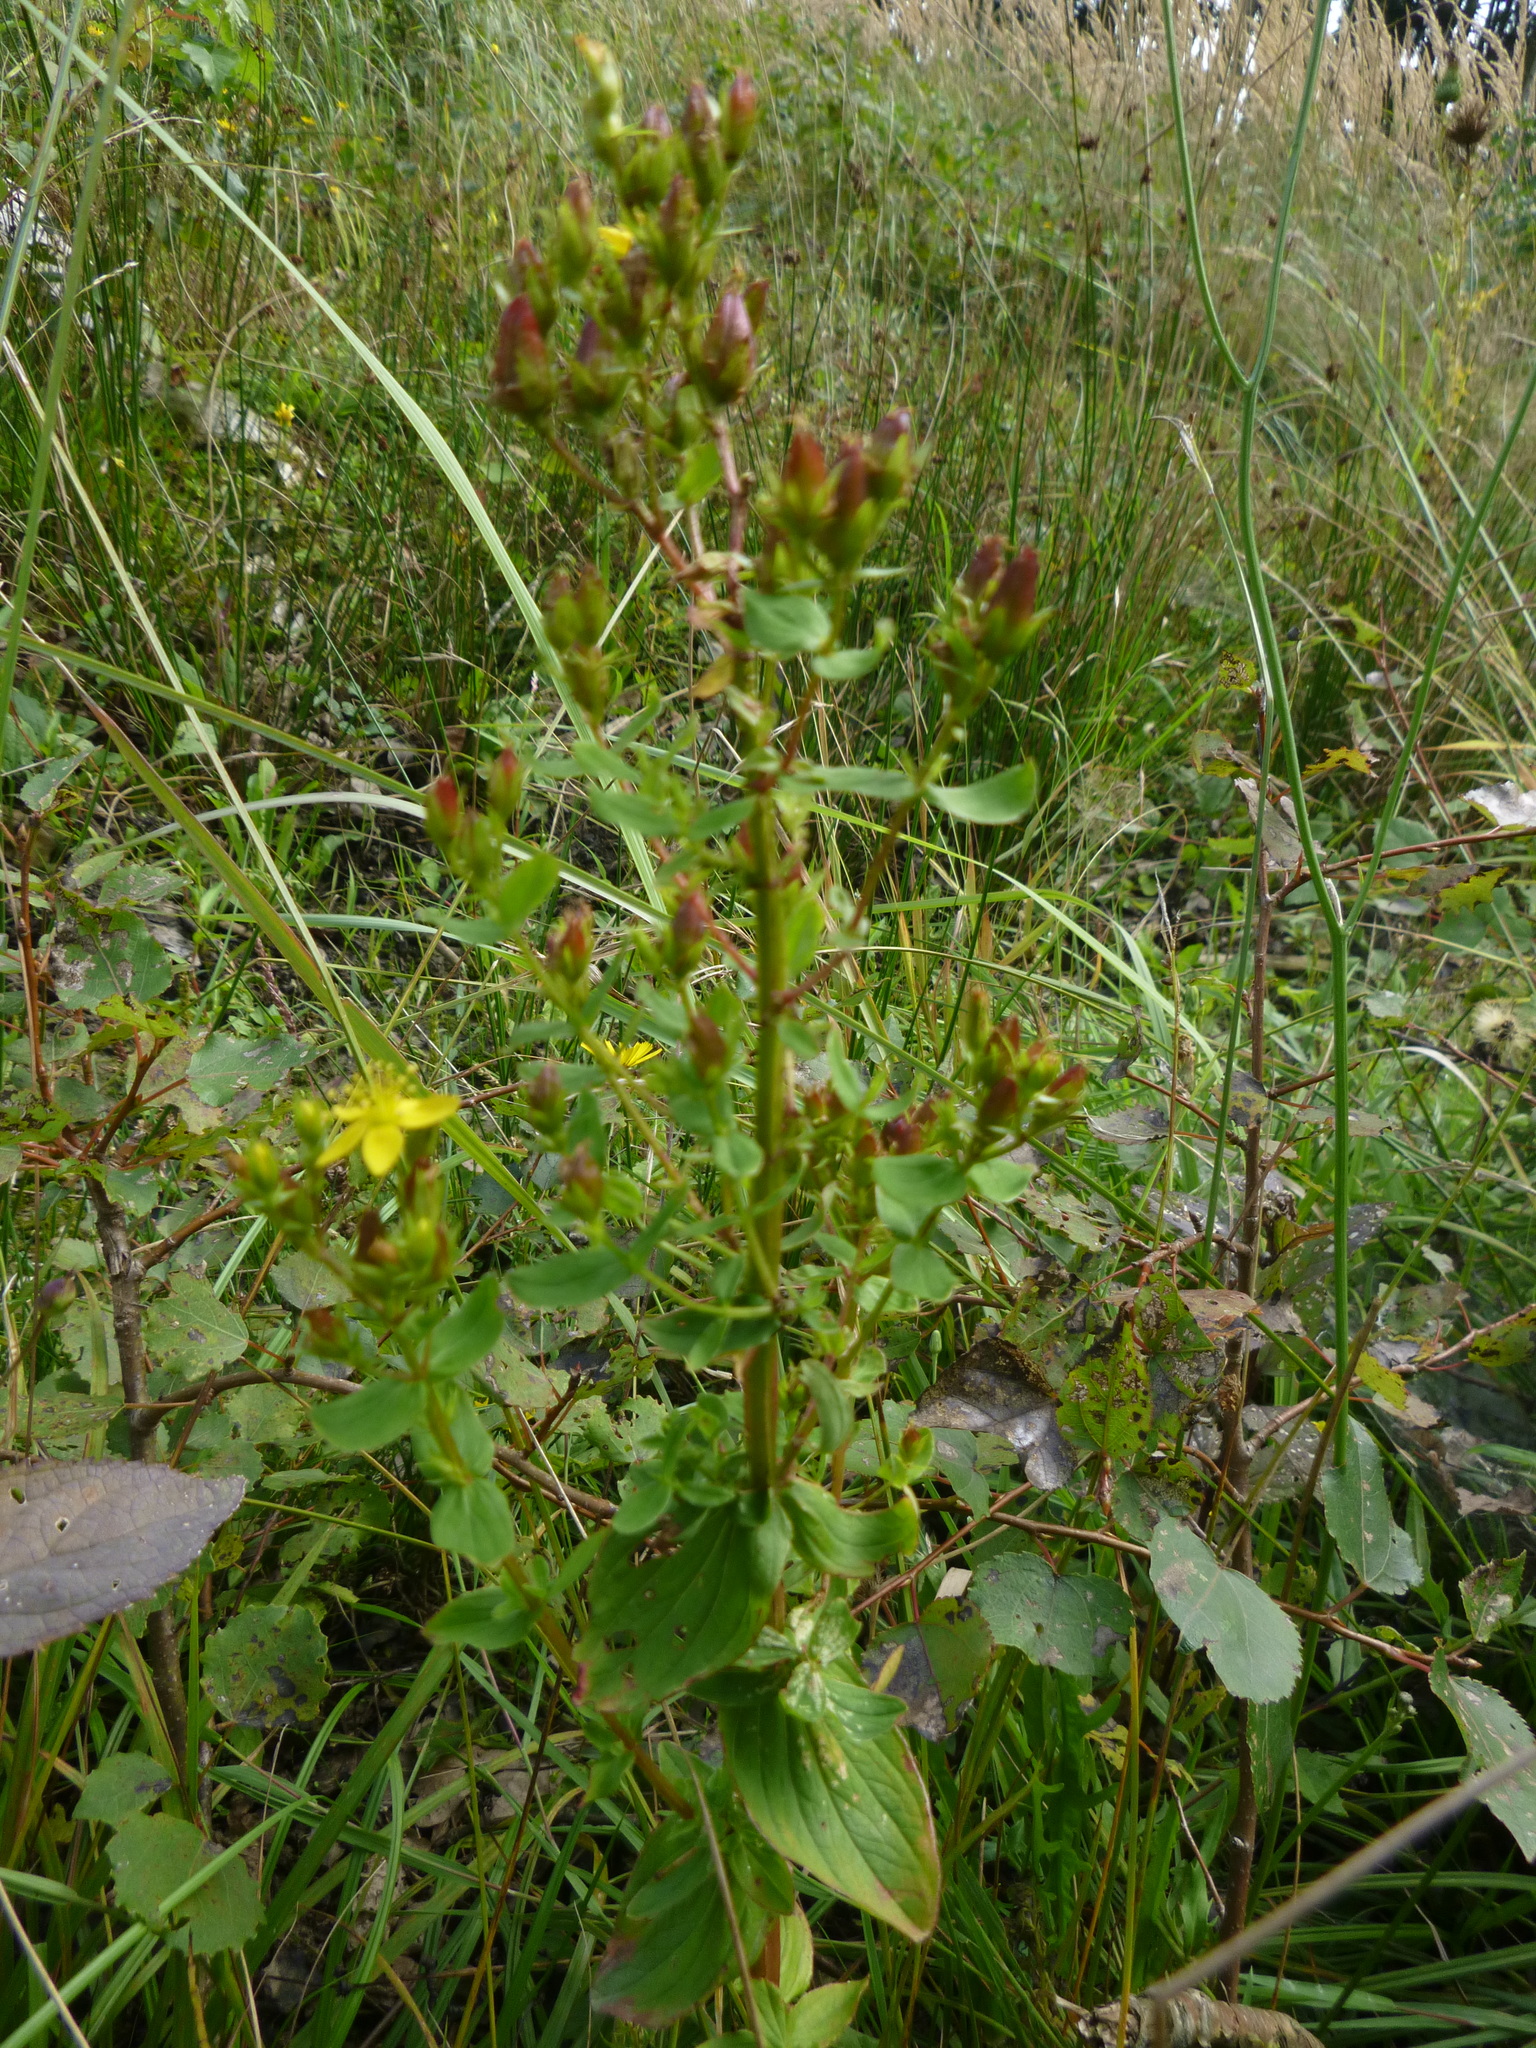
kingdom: Plantae
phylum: Tracheophyta
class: Magnoliopsida
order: Malpighiales
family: Hypericaceae
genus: Hypericum
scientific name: Hypericum tetrapterum
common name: Square-stalked st. john's-wort
